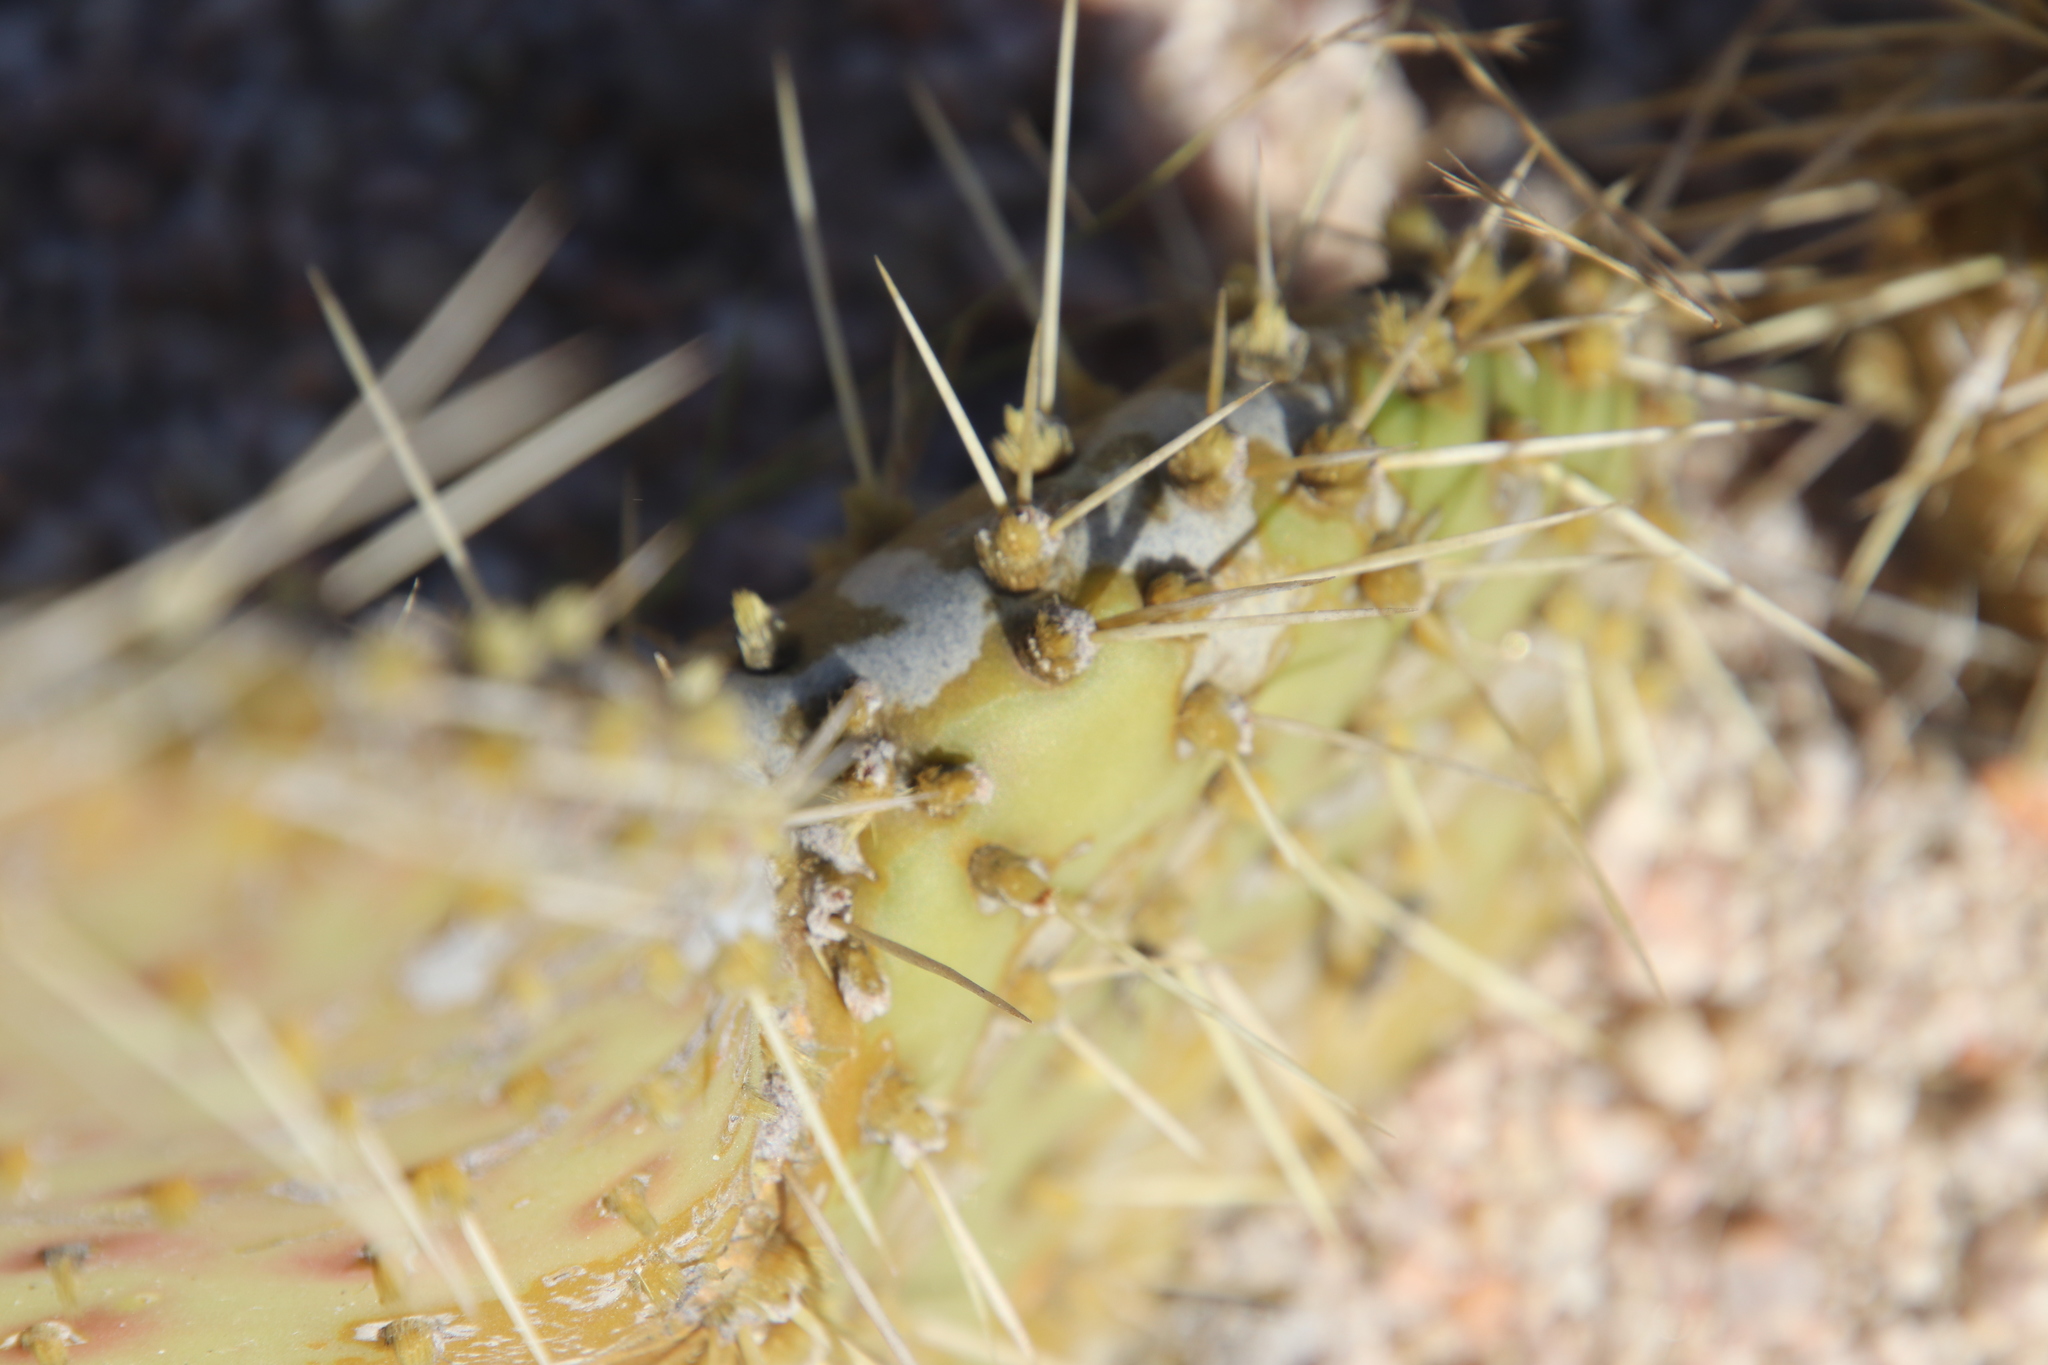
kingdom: Plantae
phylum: Tracheophyta
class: Magnoliopsida
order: Caryophyllales
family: Cactaceae
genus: Opuntia
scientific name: Opuntia tapona
